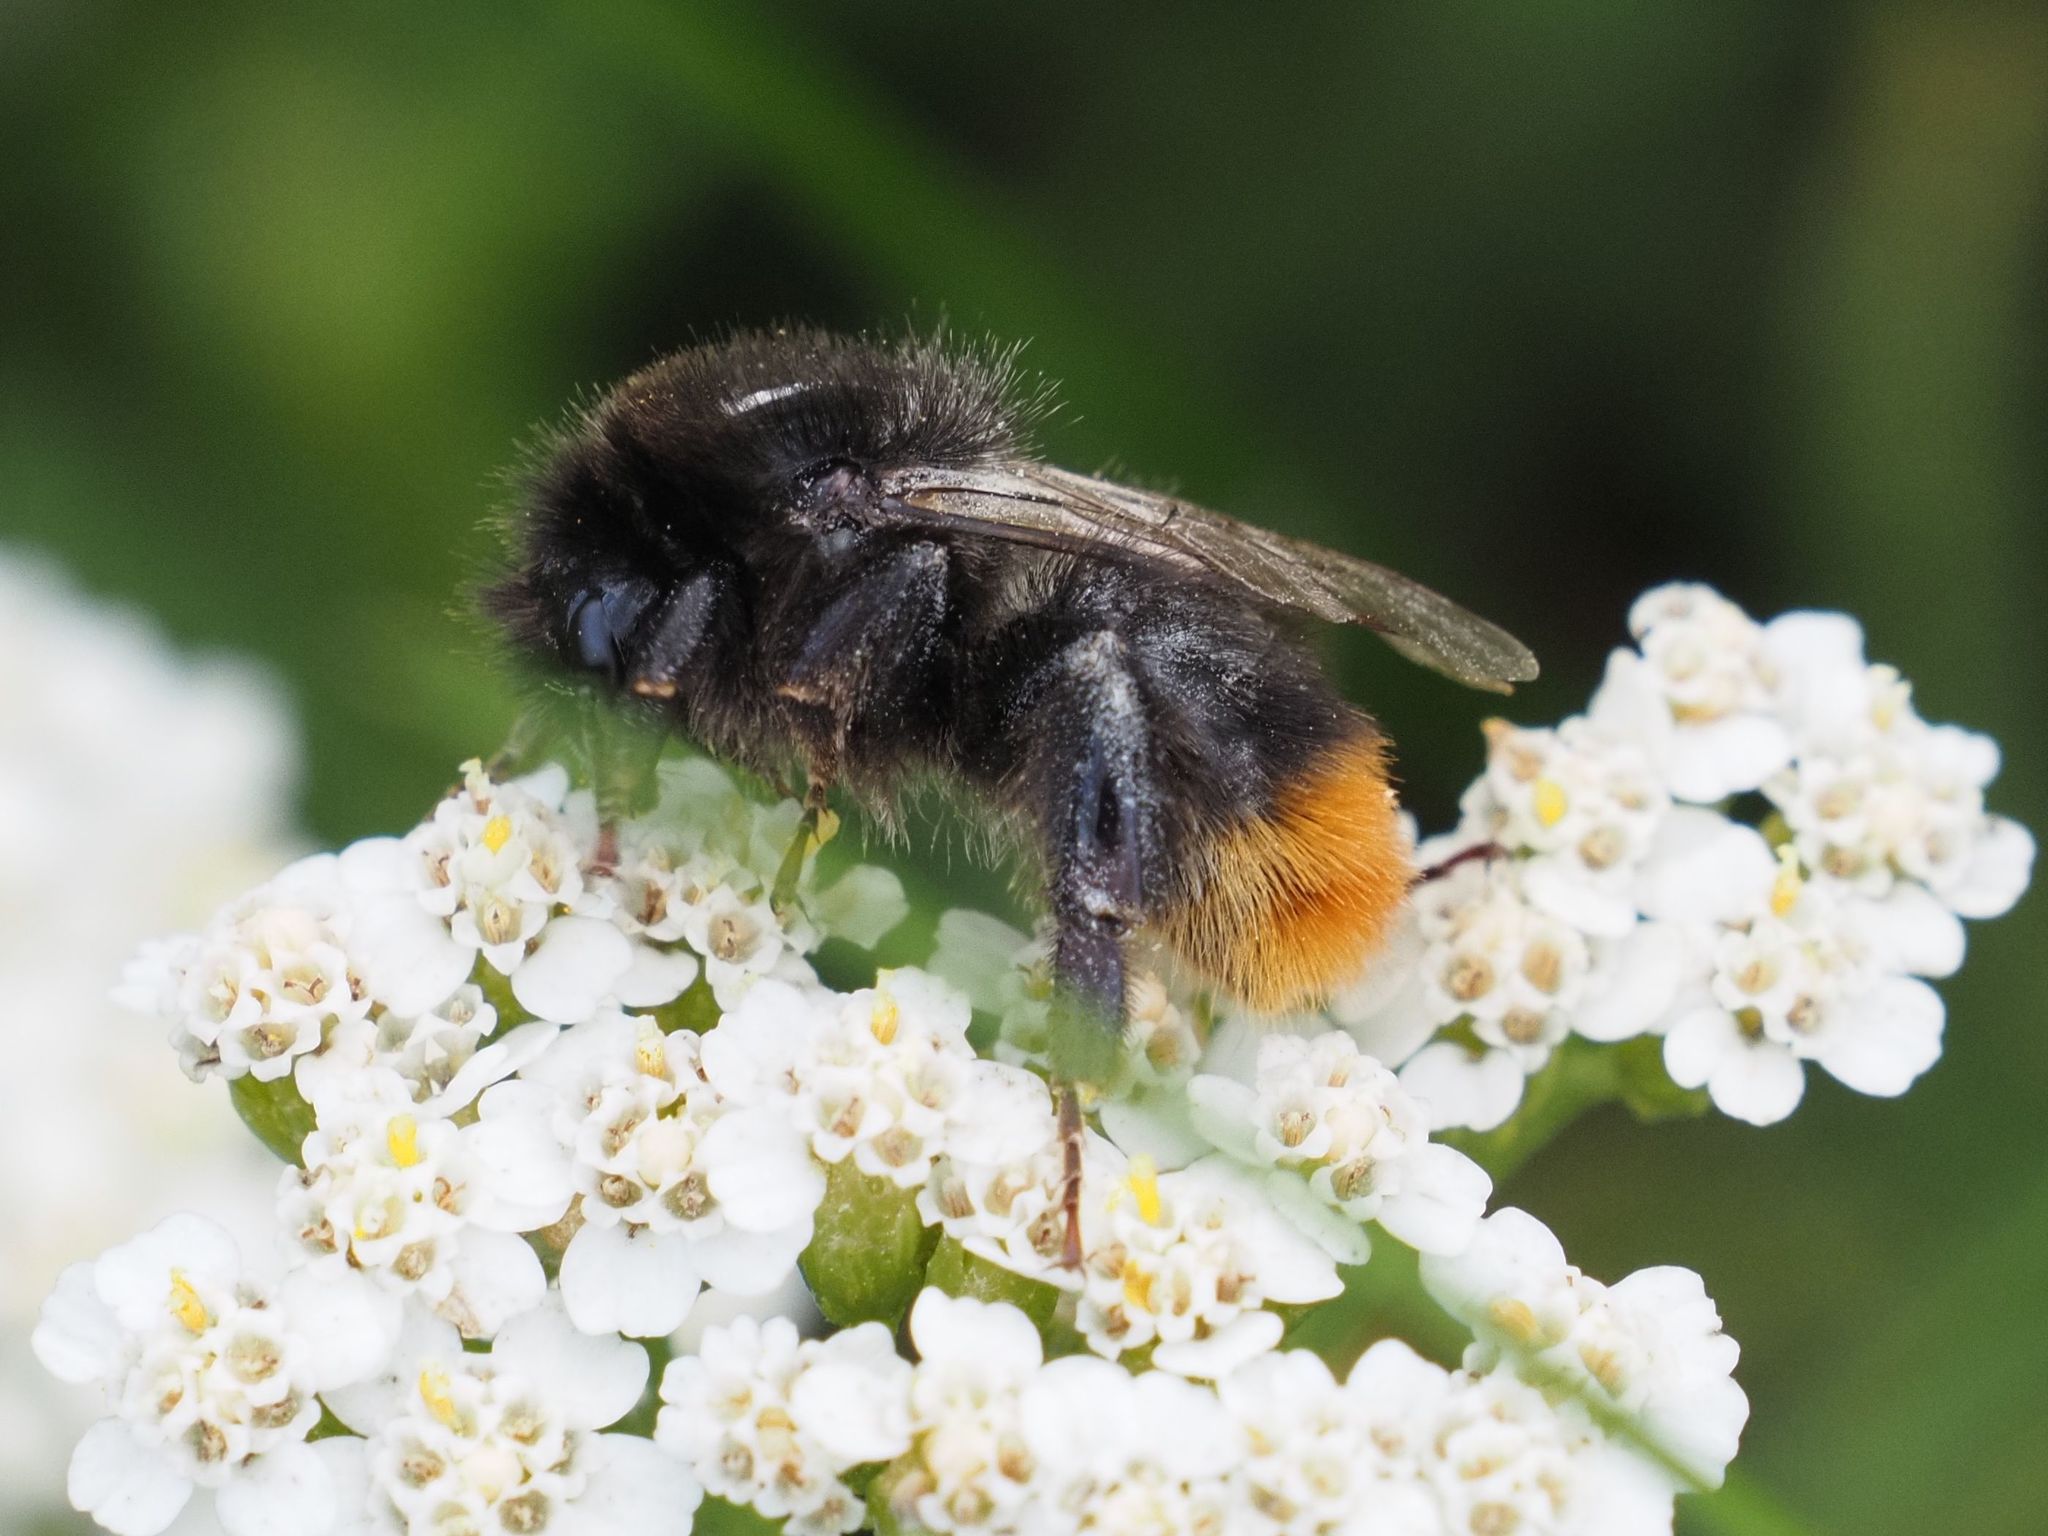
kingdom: Animalia
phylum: Arthropoda
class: Insecta
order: Hymenoptera
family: Apidae
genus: Bombus
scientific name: Bombus ruderarius
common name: Red-shanked carder-bee
